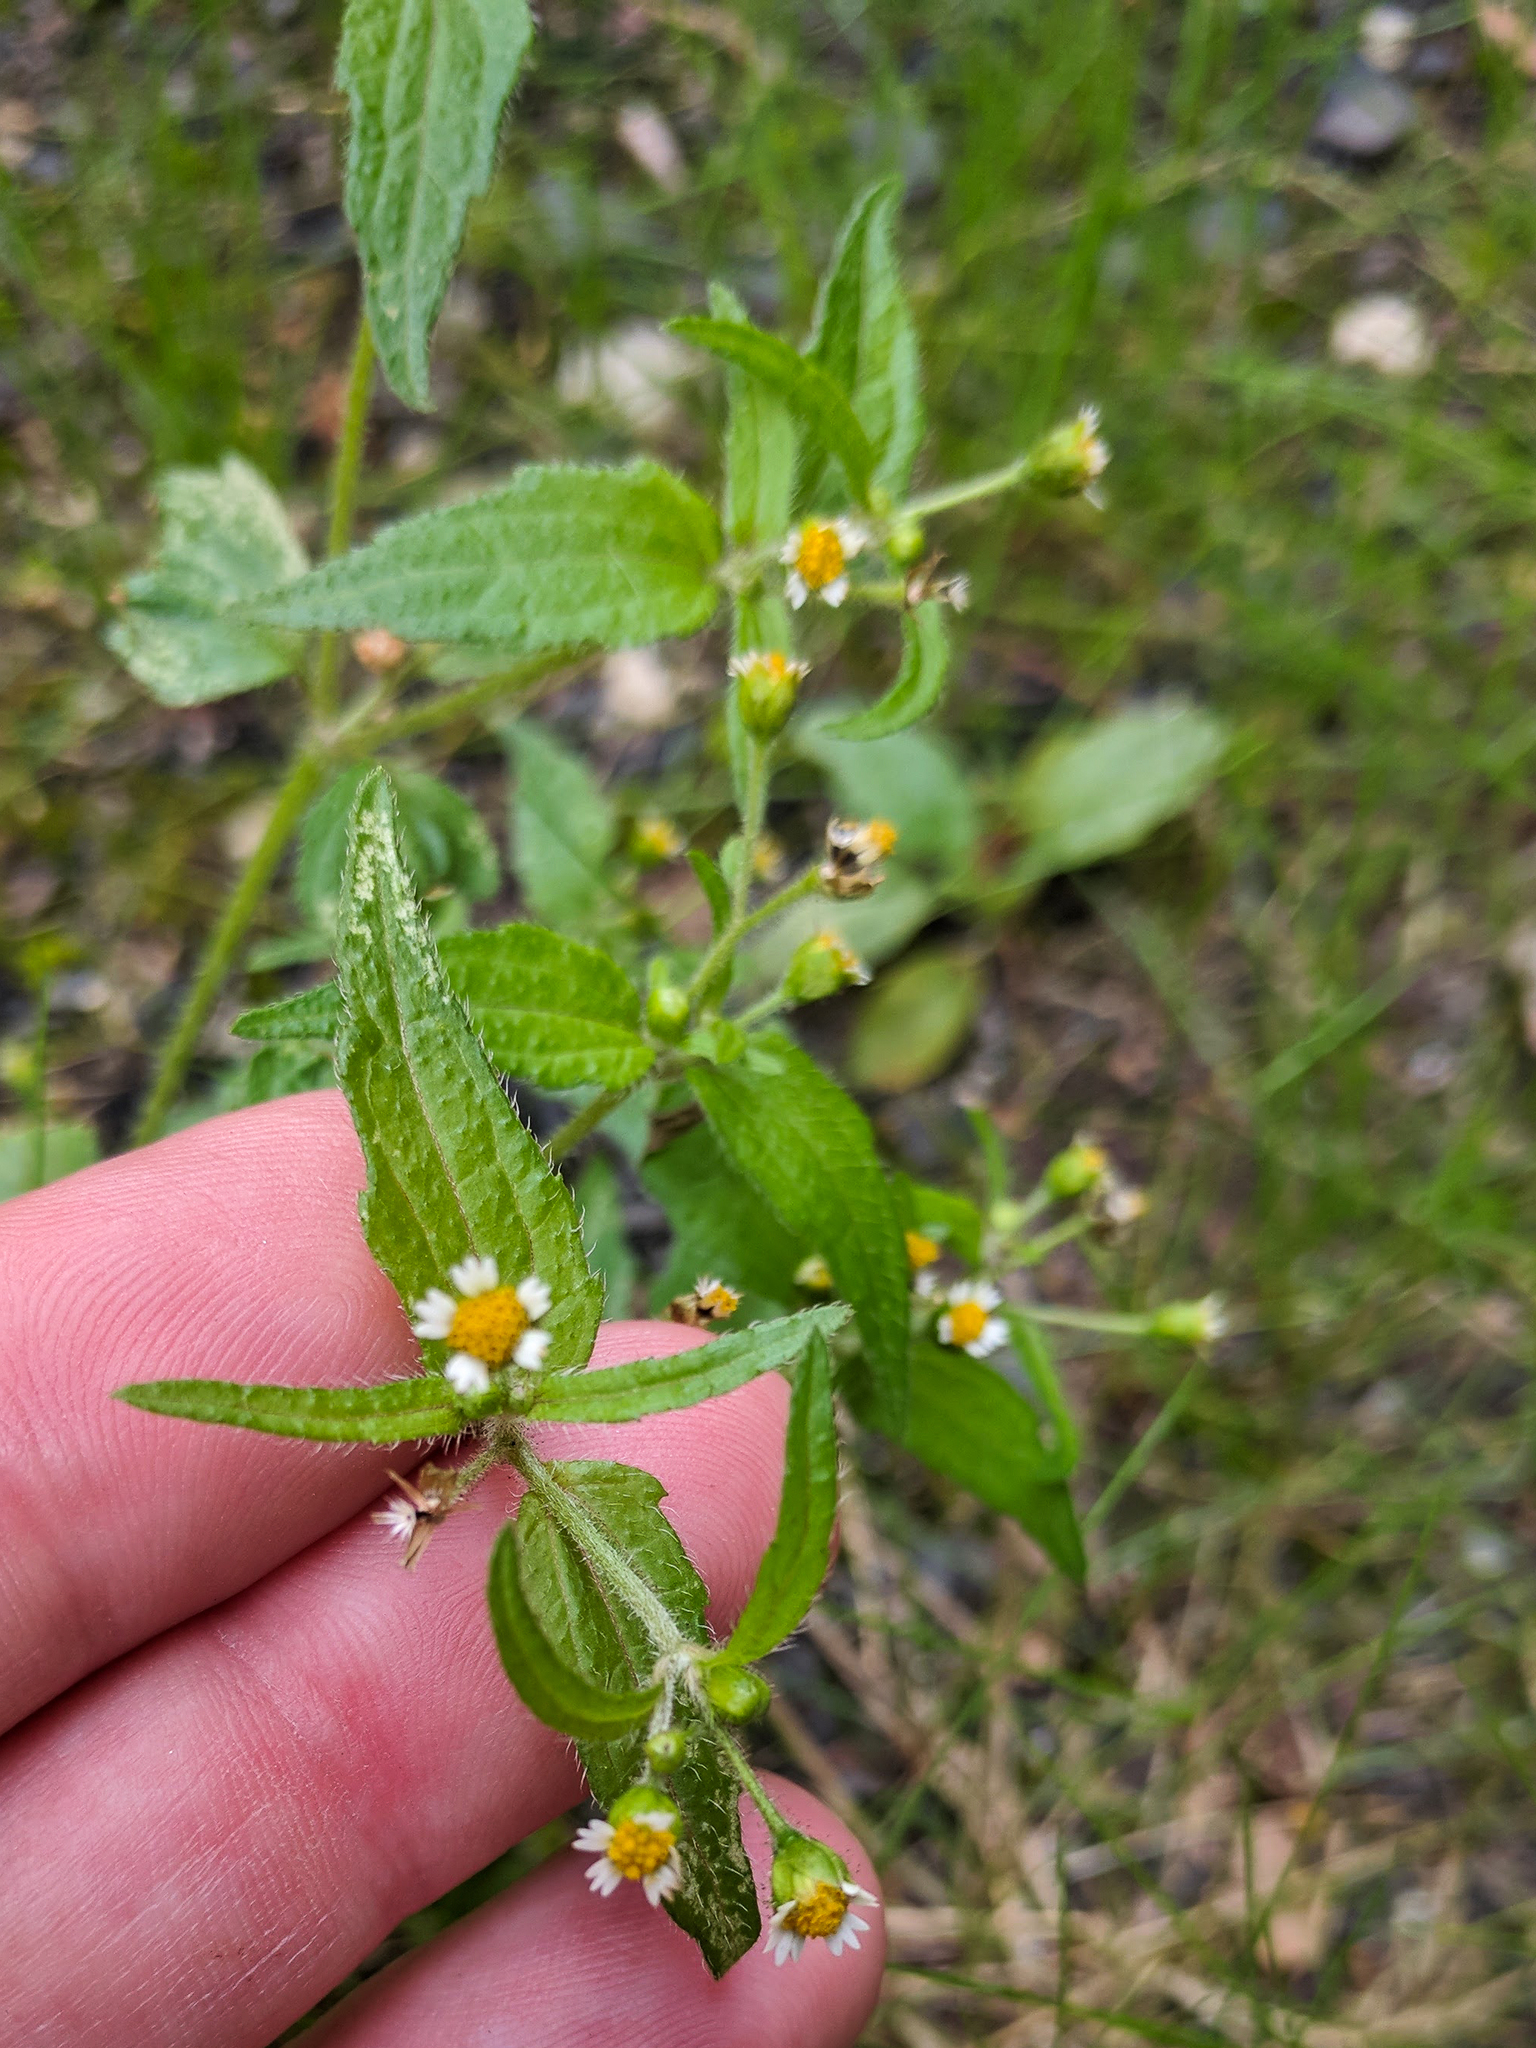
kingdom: Plantae
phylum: Tracheophyta
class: Magnoliopsida
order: Asterales
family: Asteraceae
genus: Galinsoga
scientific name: Galinsoga quadriradiata
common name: Shaggy soldier
